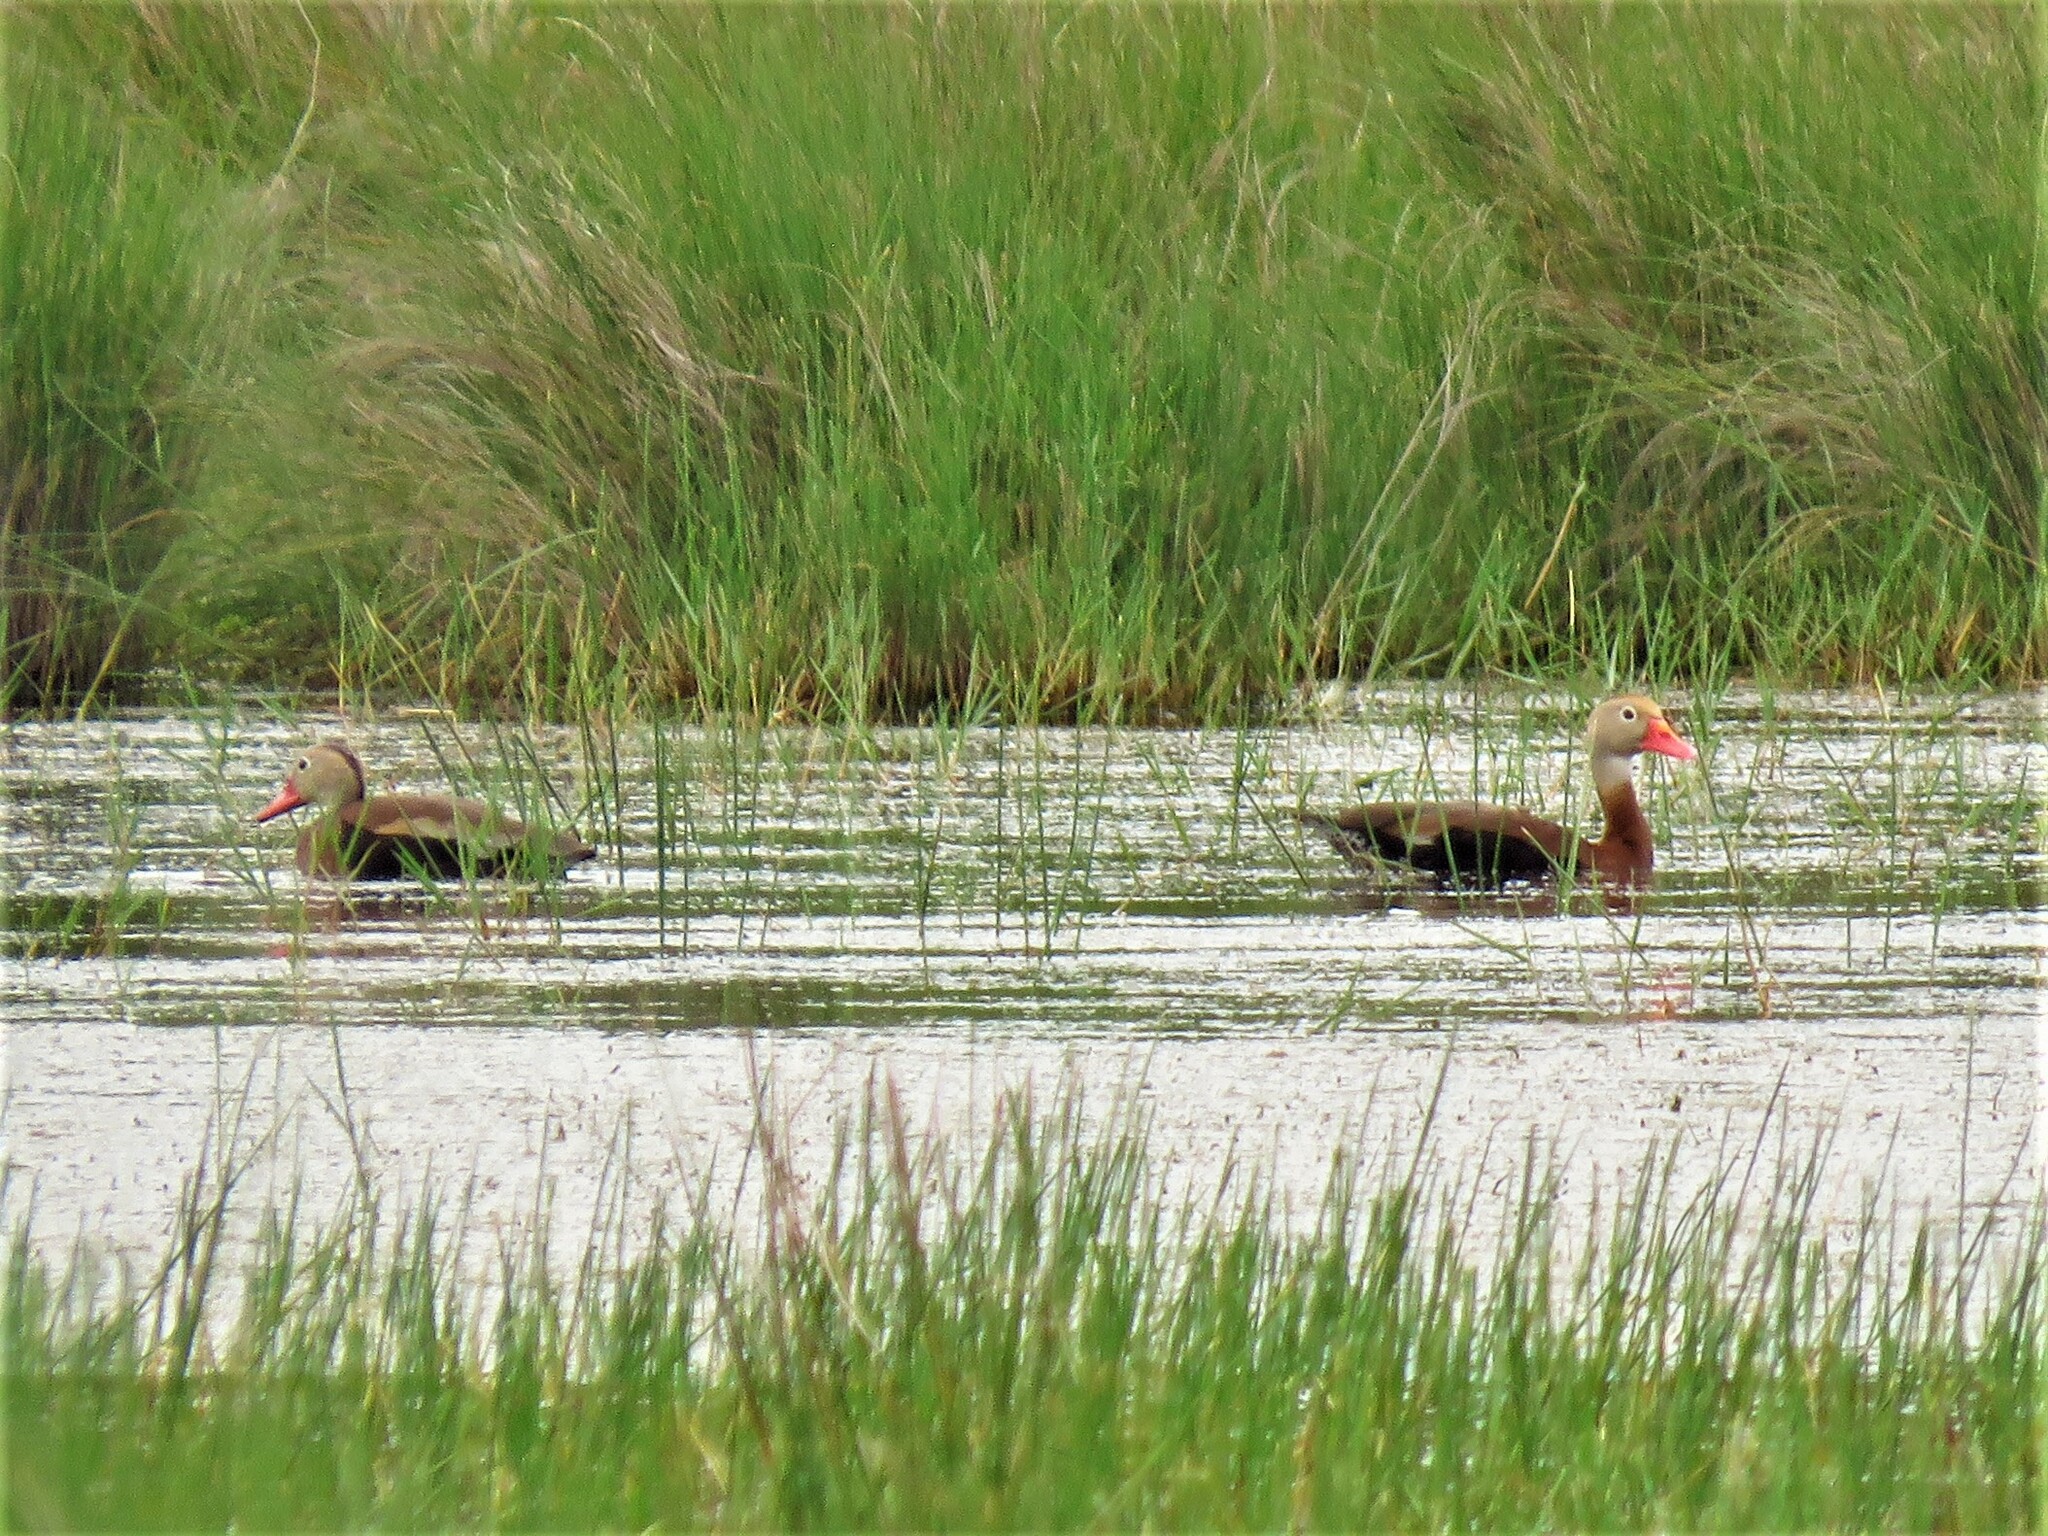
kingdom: Animalia
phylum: Chordata
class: Aves
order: Anseriformes
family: Anatidae
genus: Dendrocygna
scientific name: Dendrocygna autumnalis
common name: Black-bellied whistling duck
